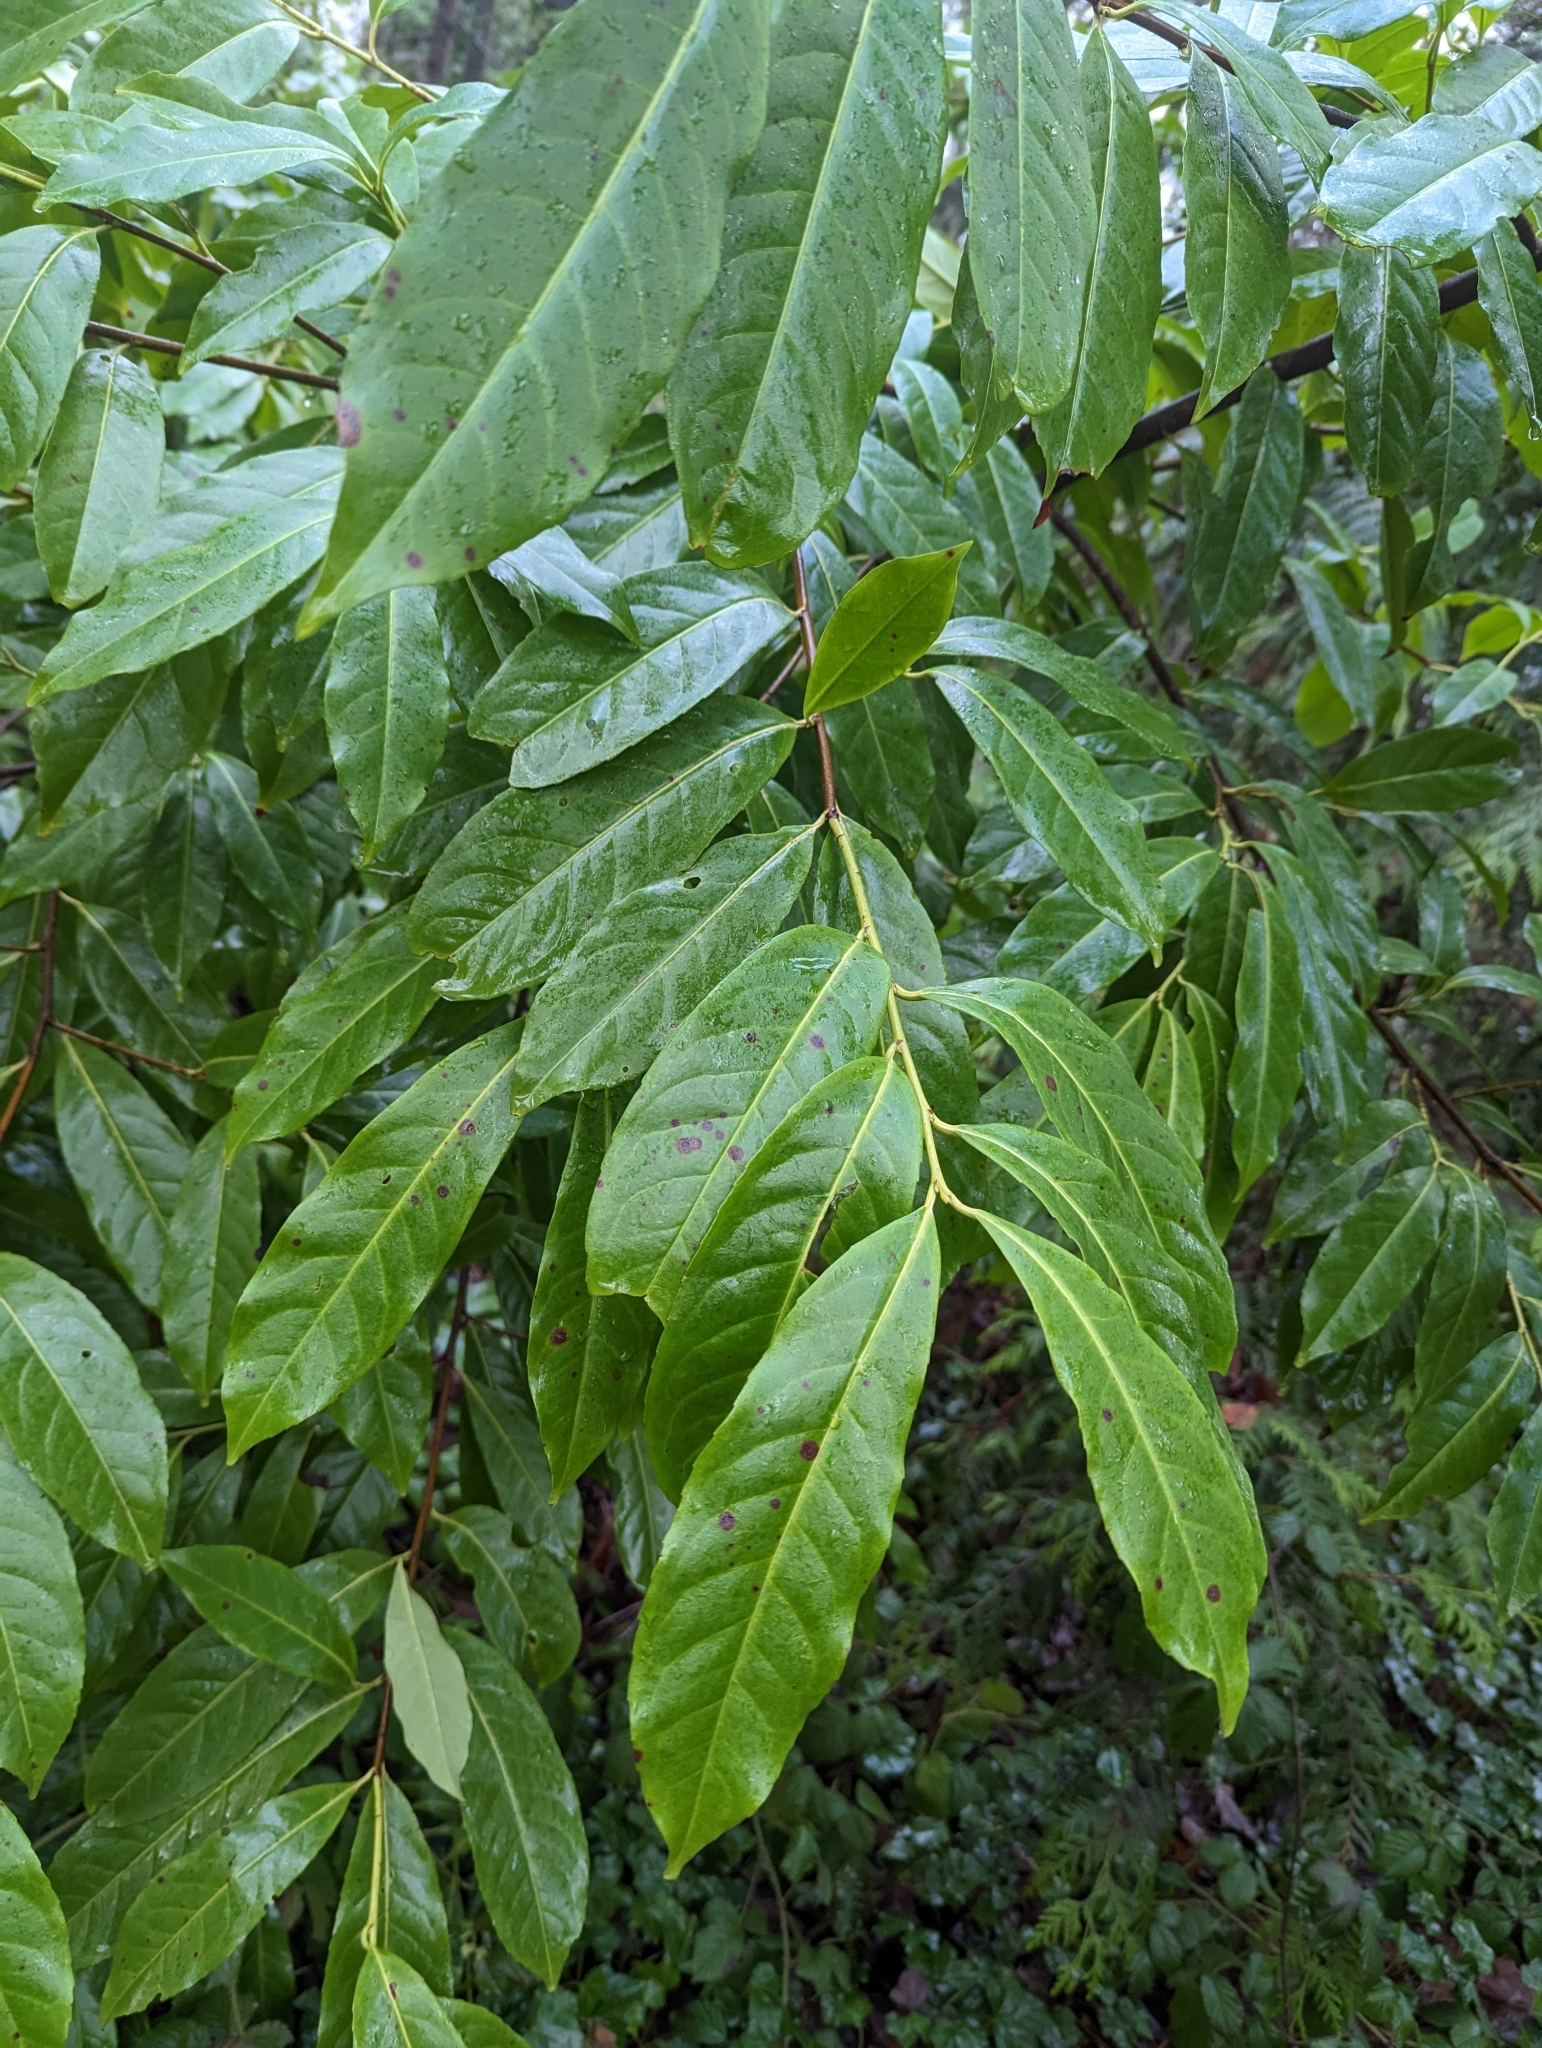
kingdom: Plantae
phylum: Tracheophyta
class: Magnoliopsida
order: Rosales
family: Rosaceae
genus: Prunus
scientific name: Prunus laurocerasus
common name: Cherry laurel
